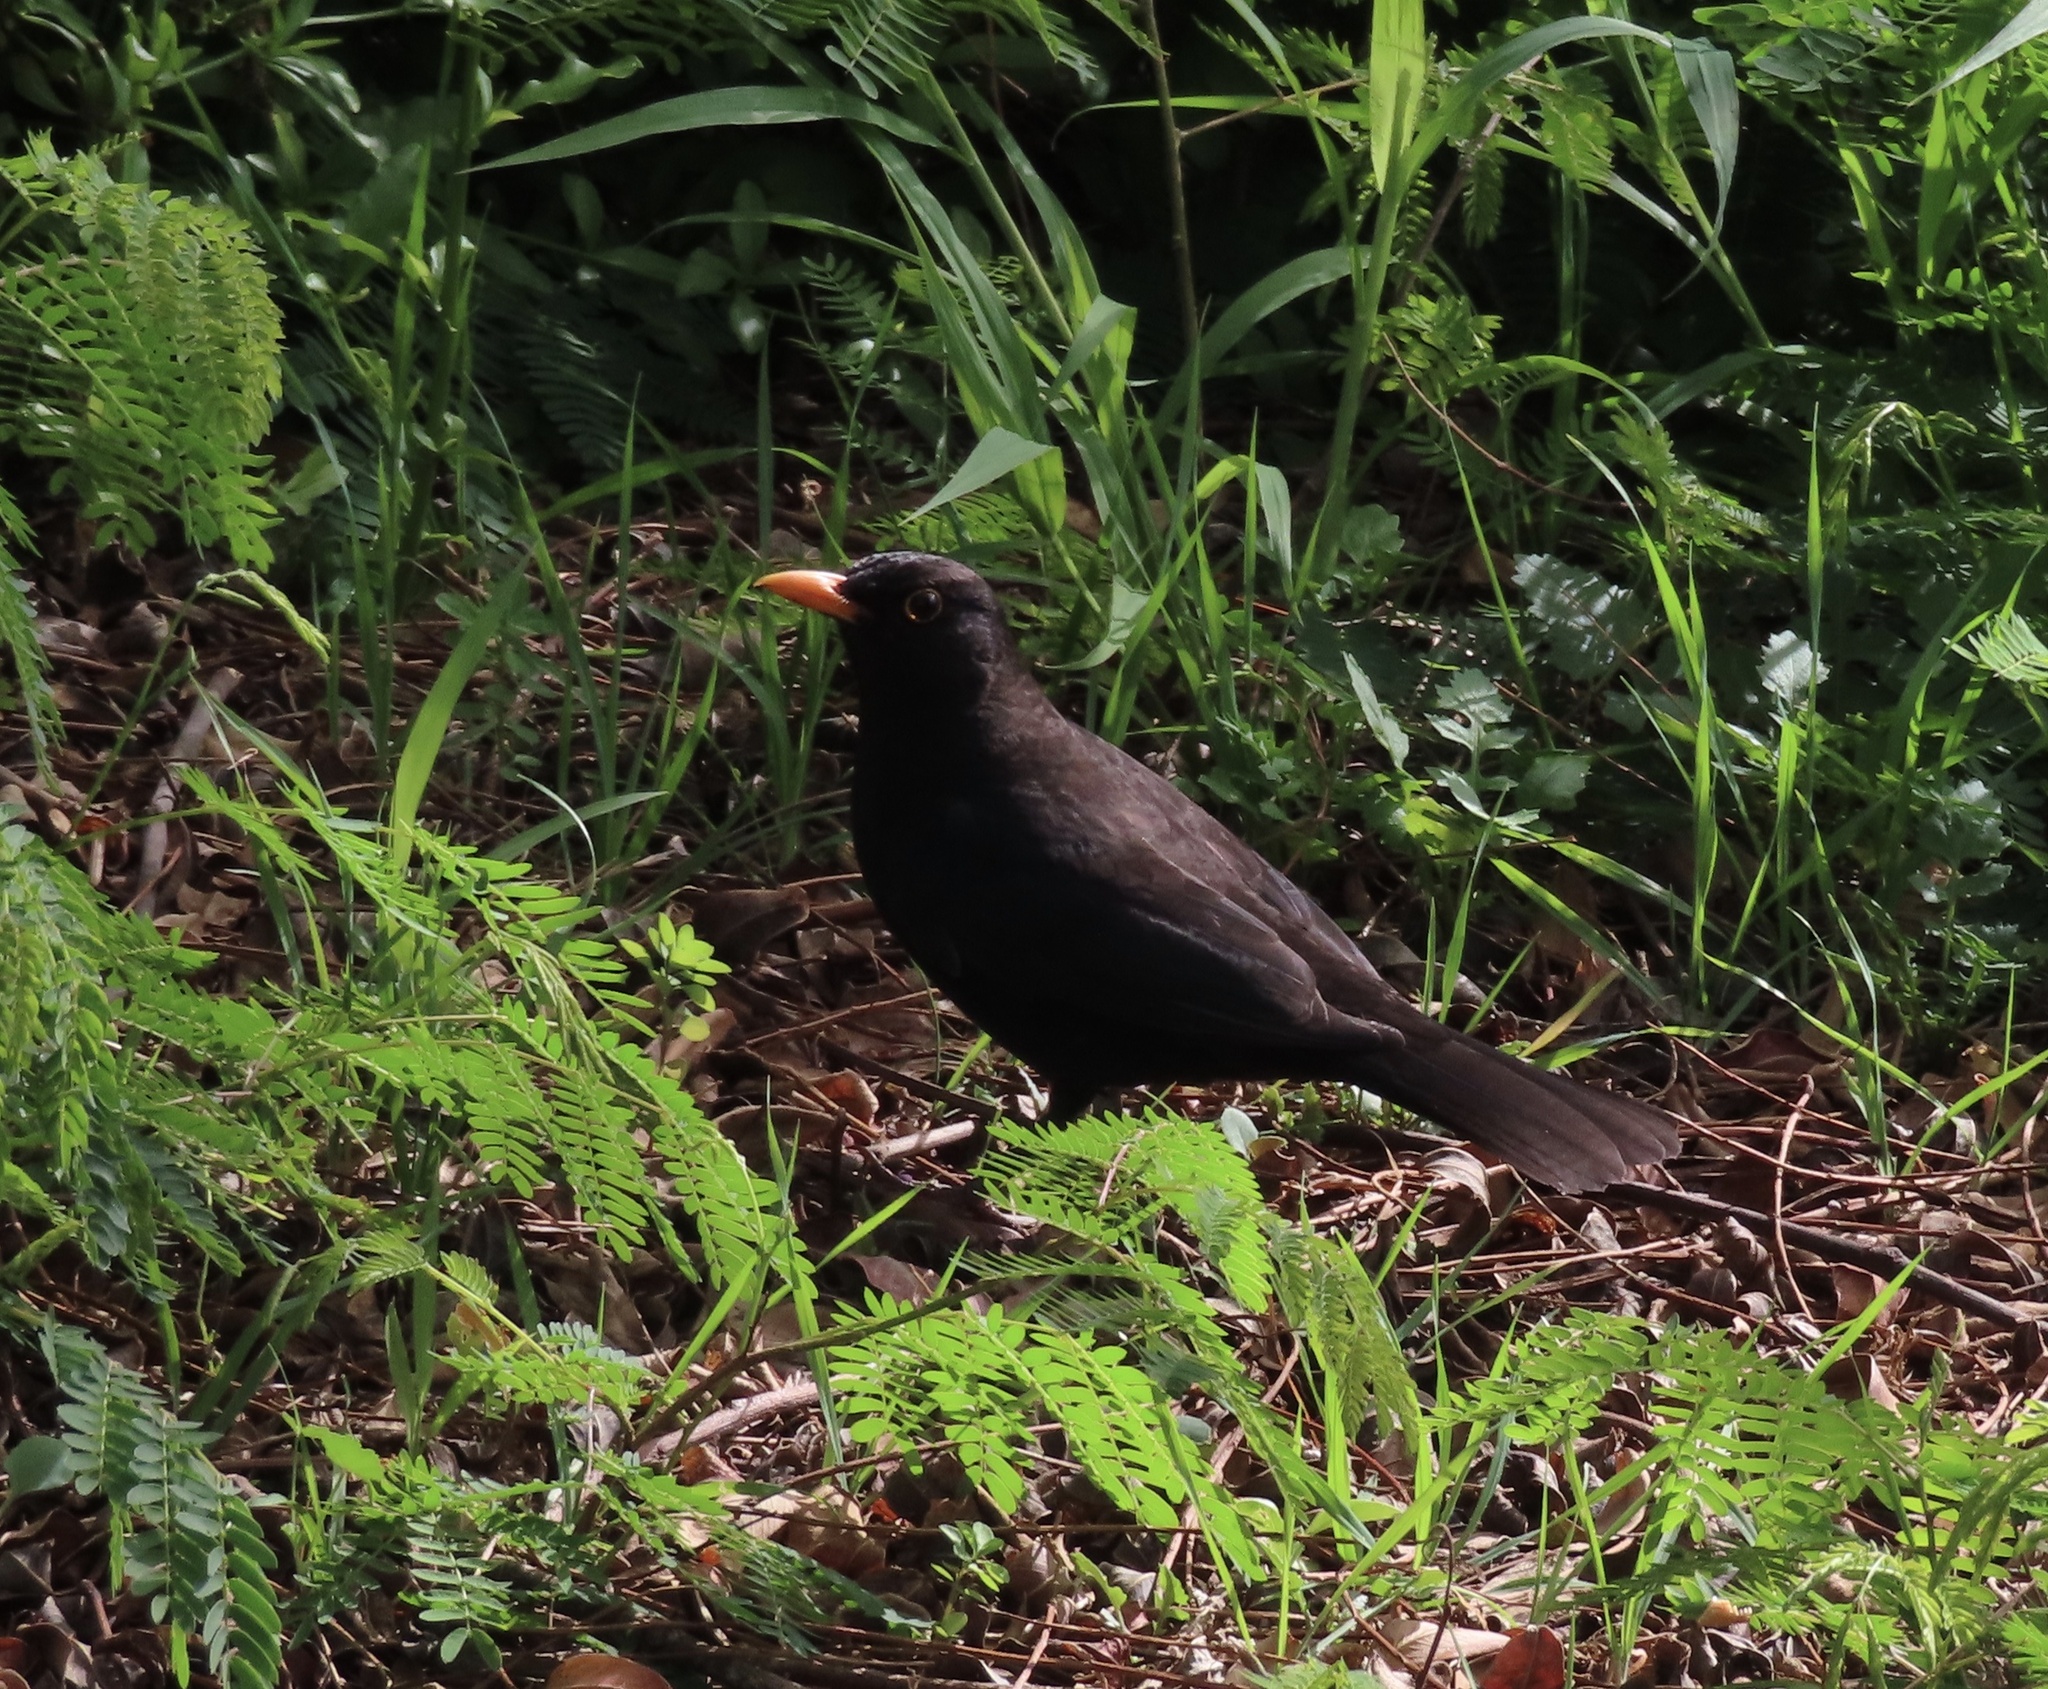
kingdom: Animalia
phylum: Chordata
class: Aves
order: Passeriformes
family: Turdidae
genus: Turdus
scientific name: Turdus merula
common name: Common blackbird
